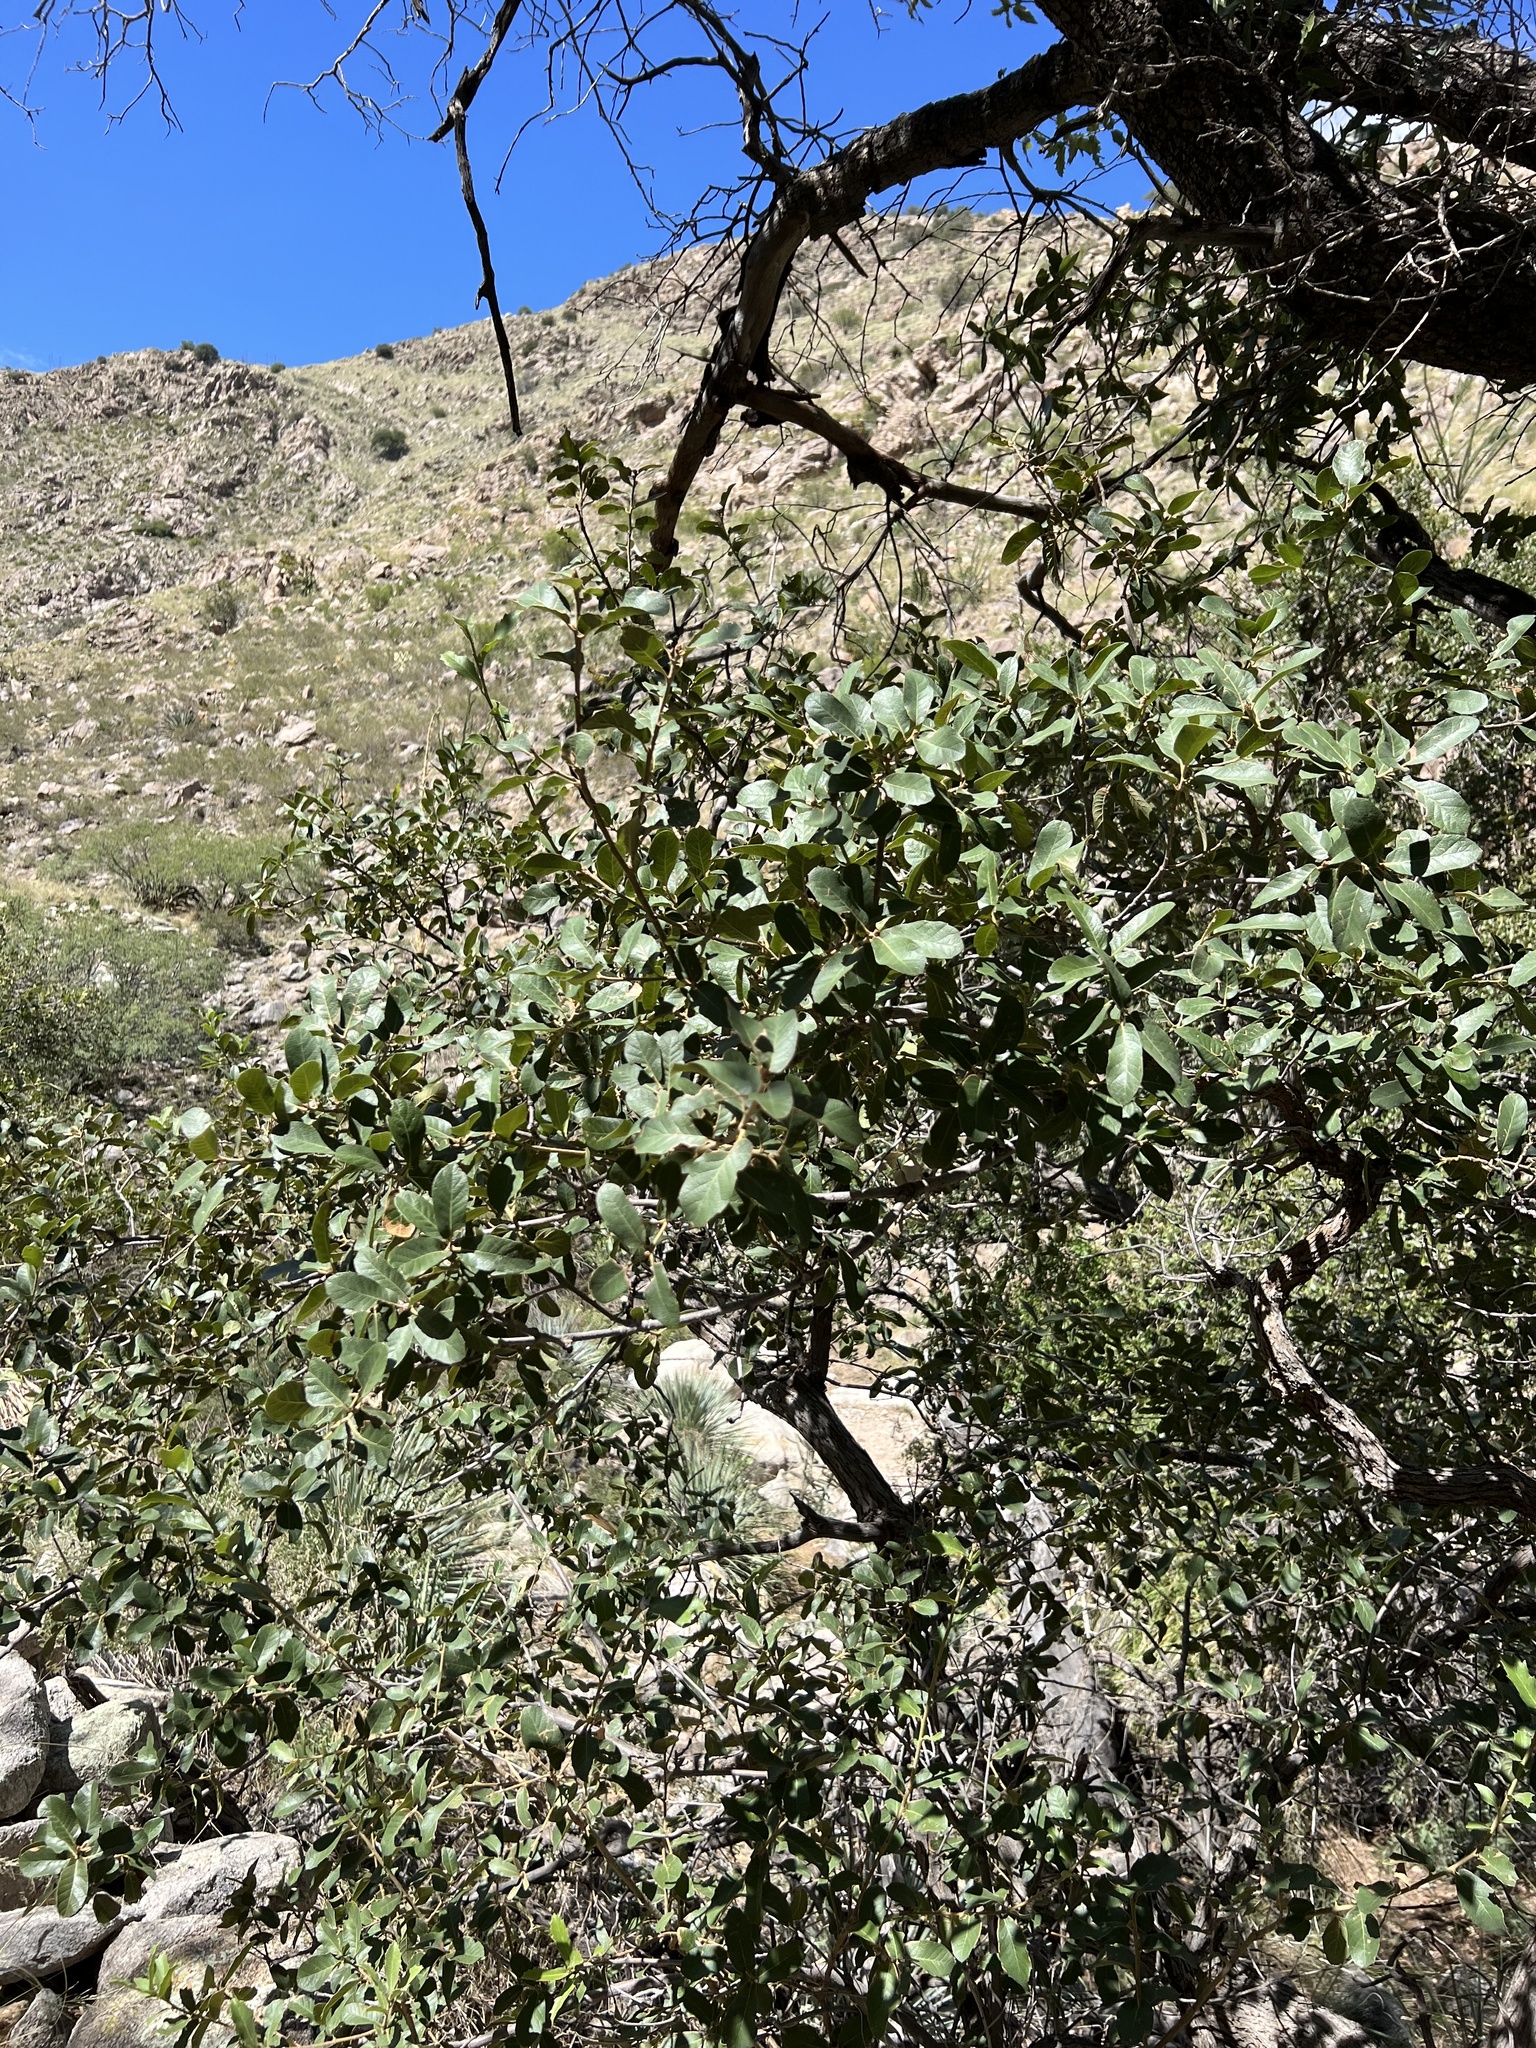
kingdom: Plantae
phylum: Tracheophyta
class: Magnoliopsida
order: Fagales
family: Fagaceae
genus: Quercus
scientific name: Quercus arizonica
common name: Arizona white oak
